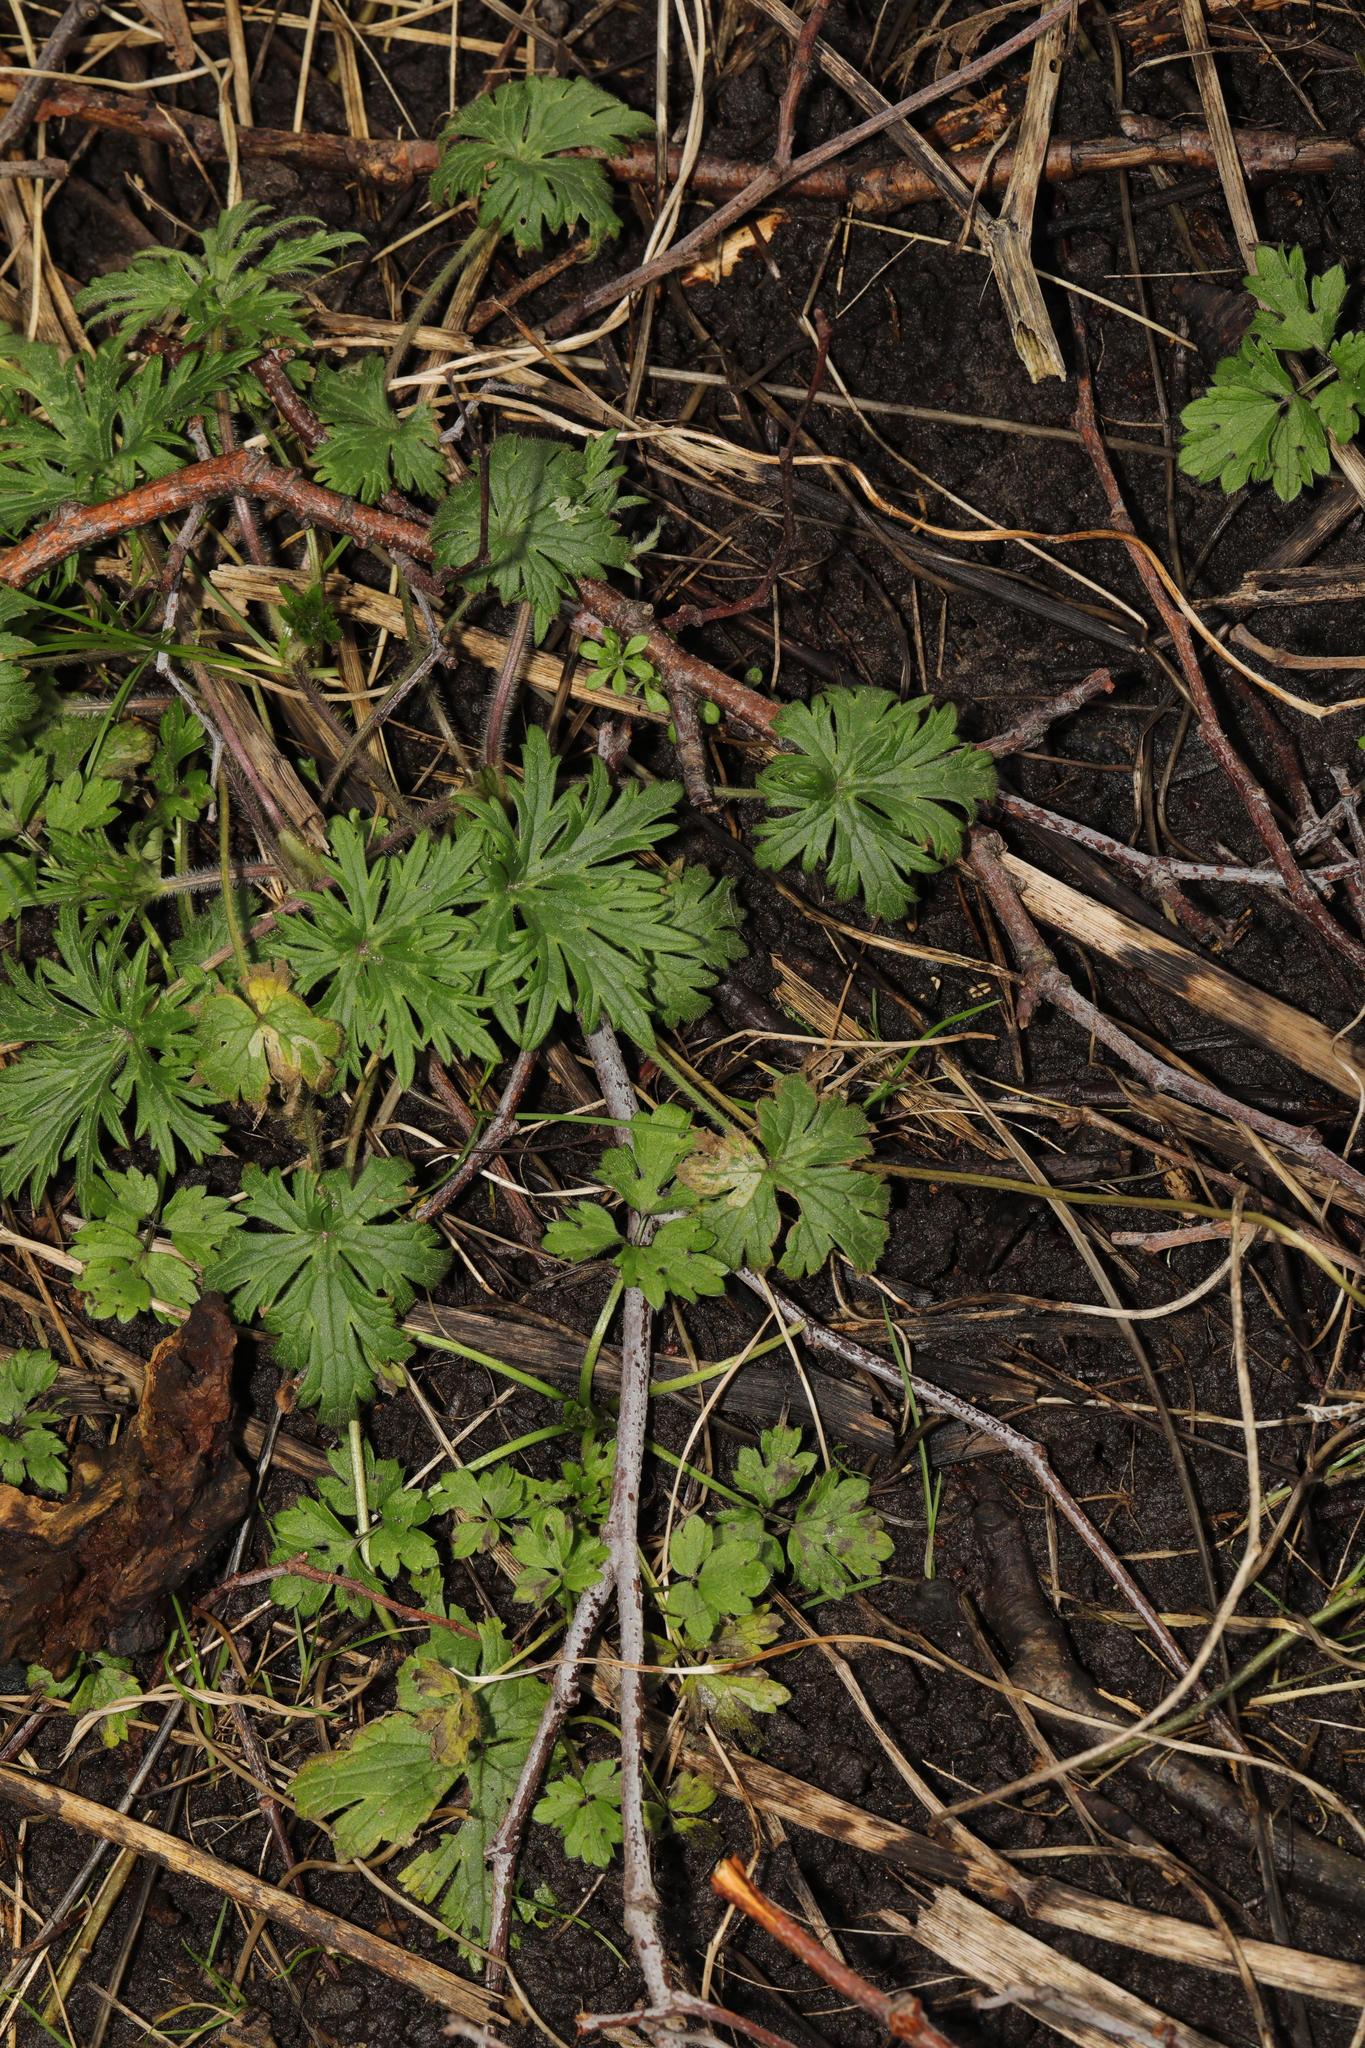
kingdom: Plantae
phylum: Tracheophyta
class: Magnoliopsida
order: Ranunculales
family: Ranunculaceae
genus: Ranunculus
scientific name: Ranunculus acris
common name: Meadow buttercup
